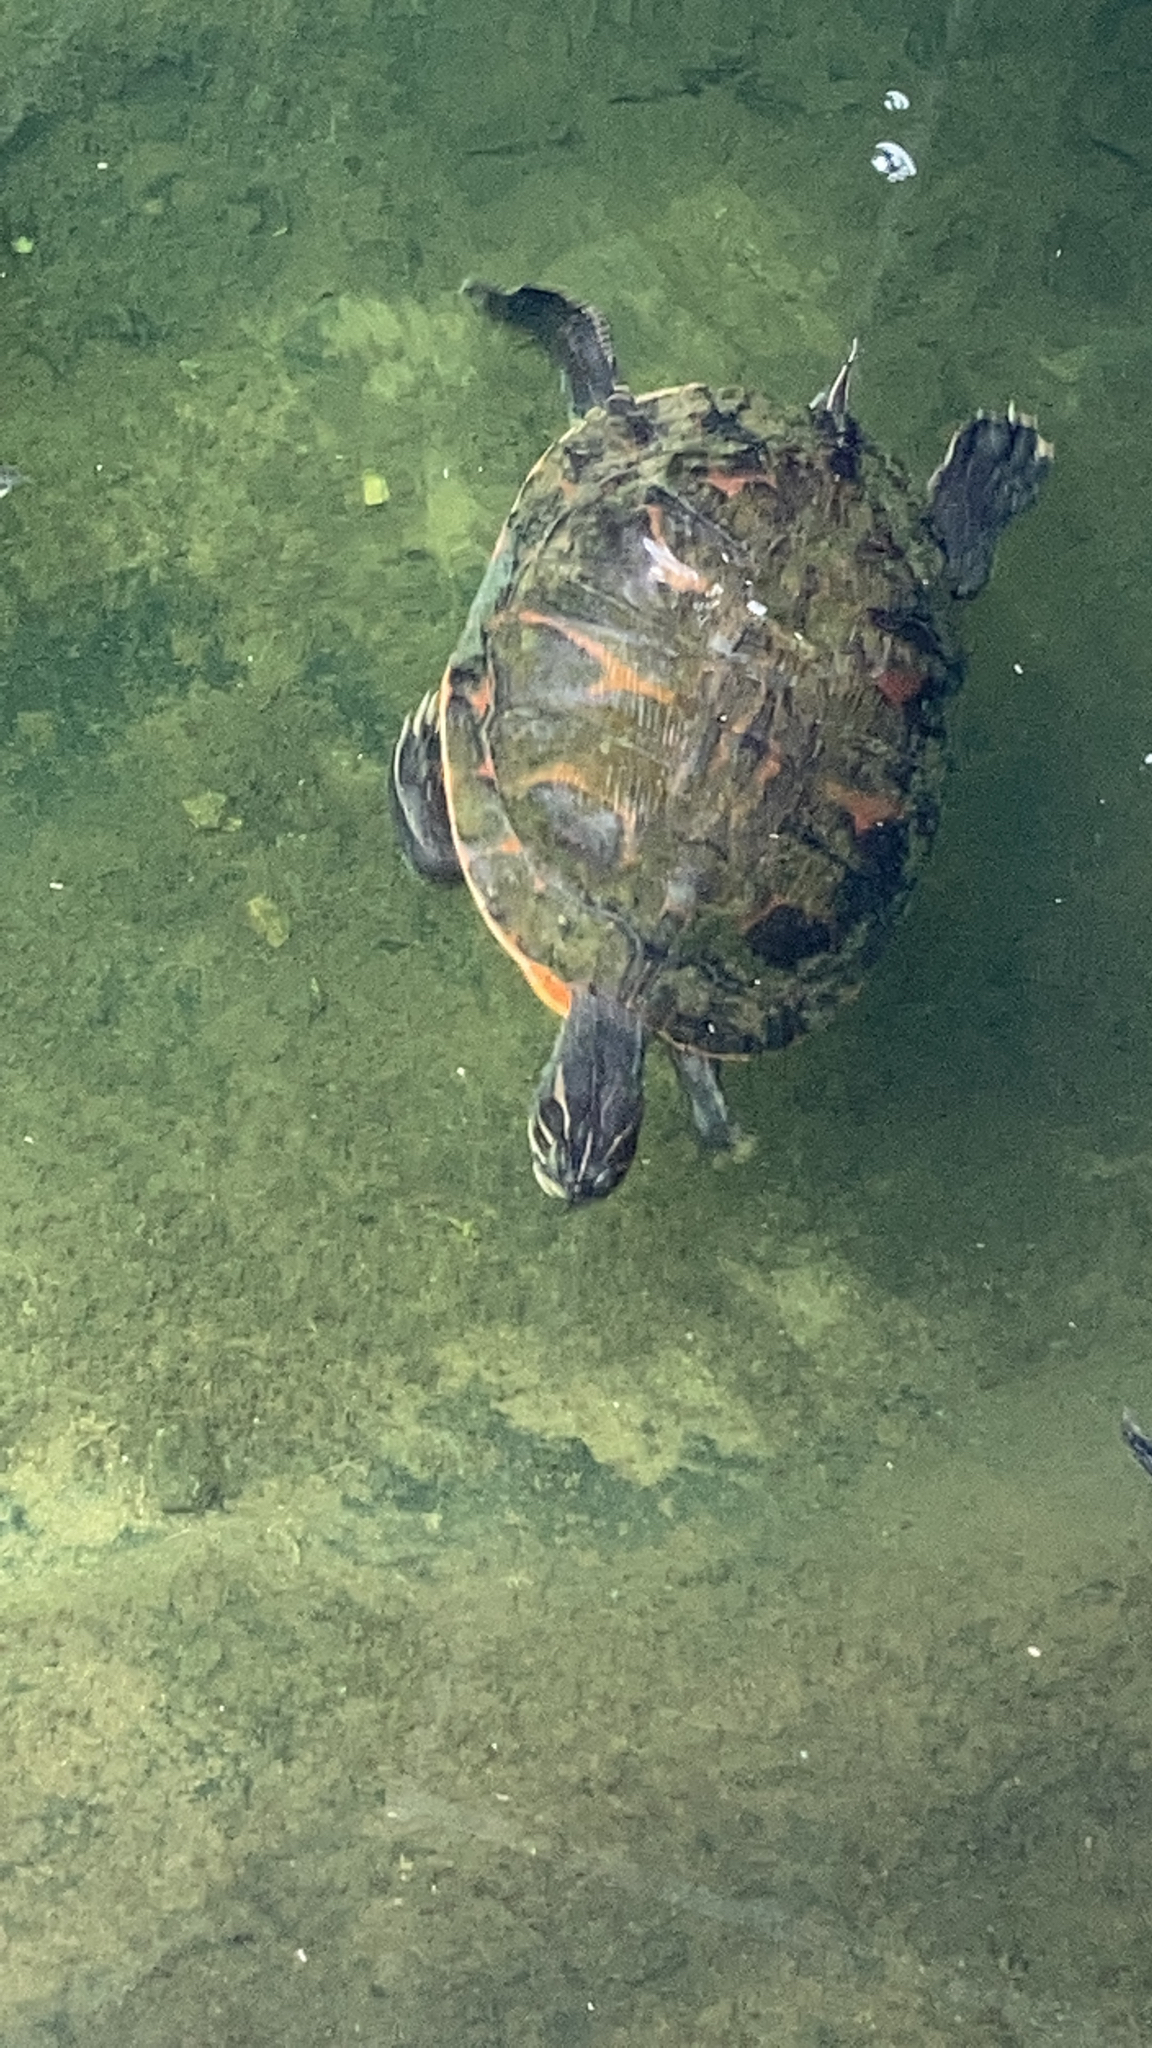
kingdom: Animalia
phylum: Chordata
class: Testudines
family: Emydidae
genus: Pseudemys
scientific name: Pseudemys rubriventris
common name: American red-bellied turtle
